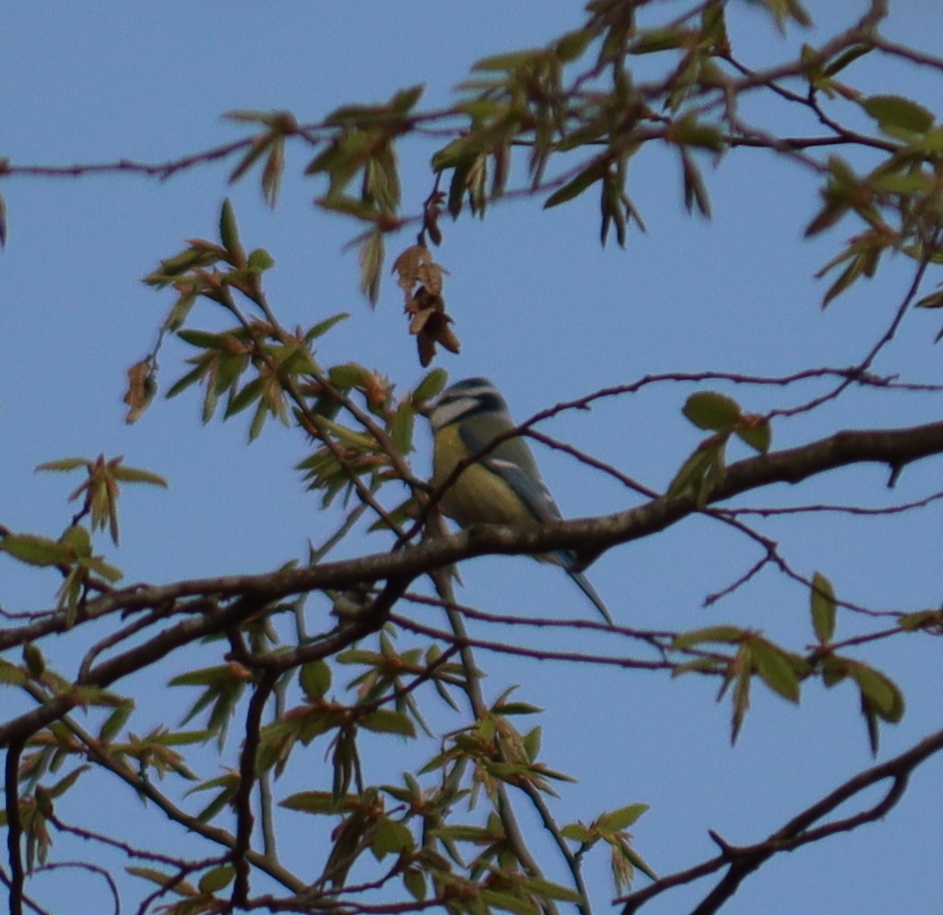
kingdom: Animalia
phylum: Chordata
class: Aves
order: Passeriformes
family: Paridae
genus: Cyanistes
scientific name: Cyanistes caeruleus
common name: Eurasian blue tit
